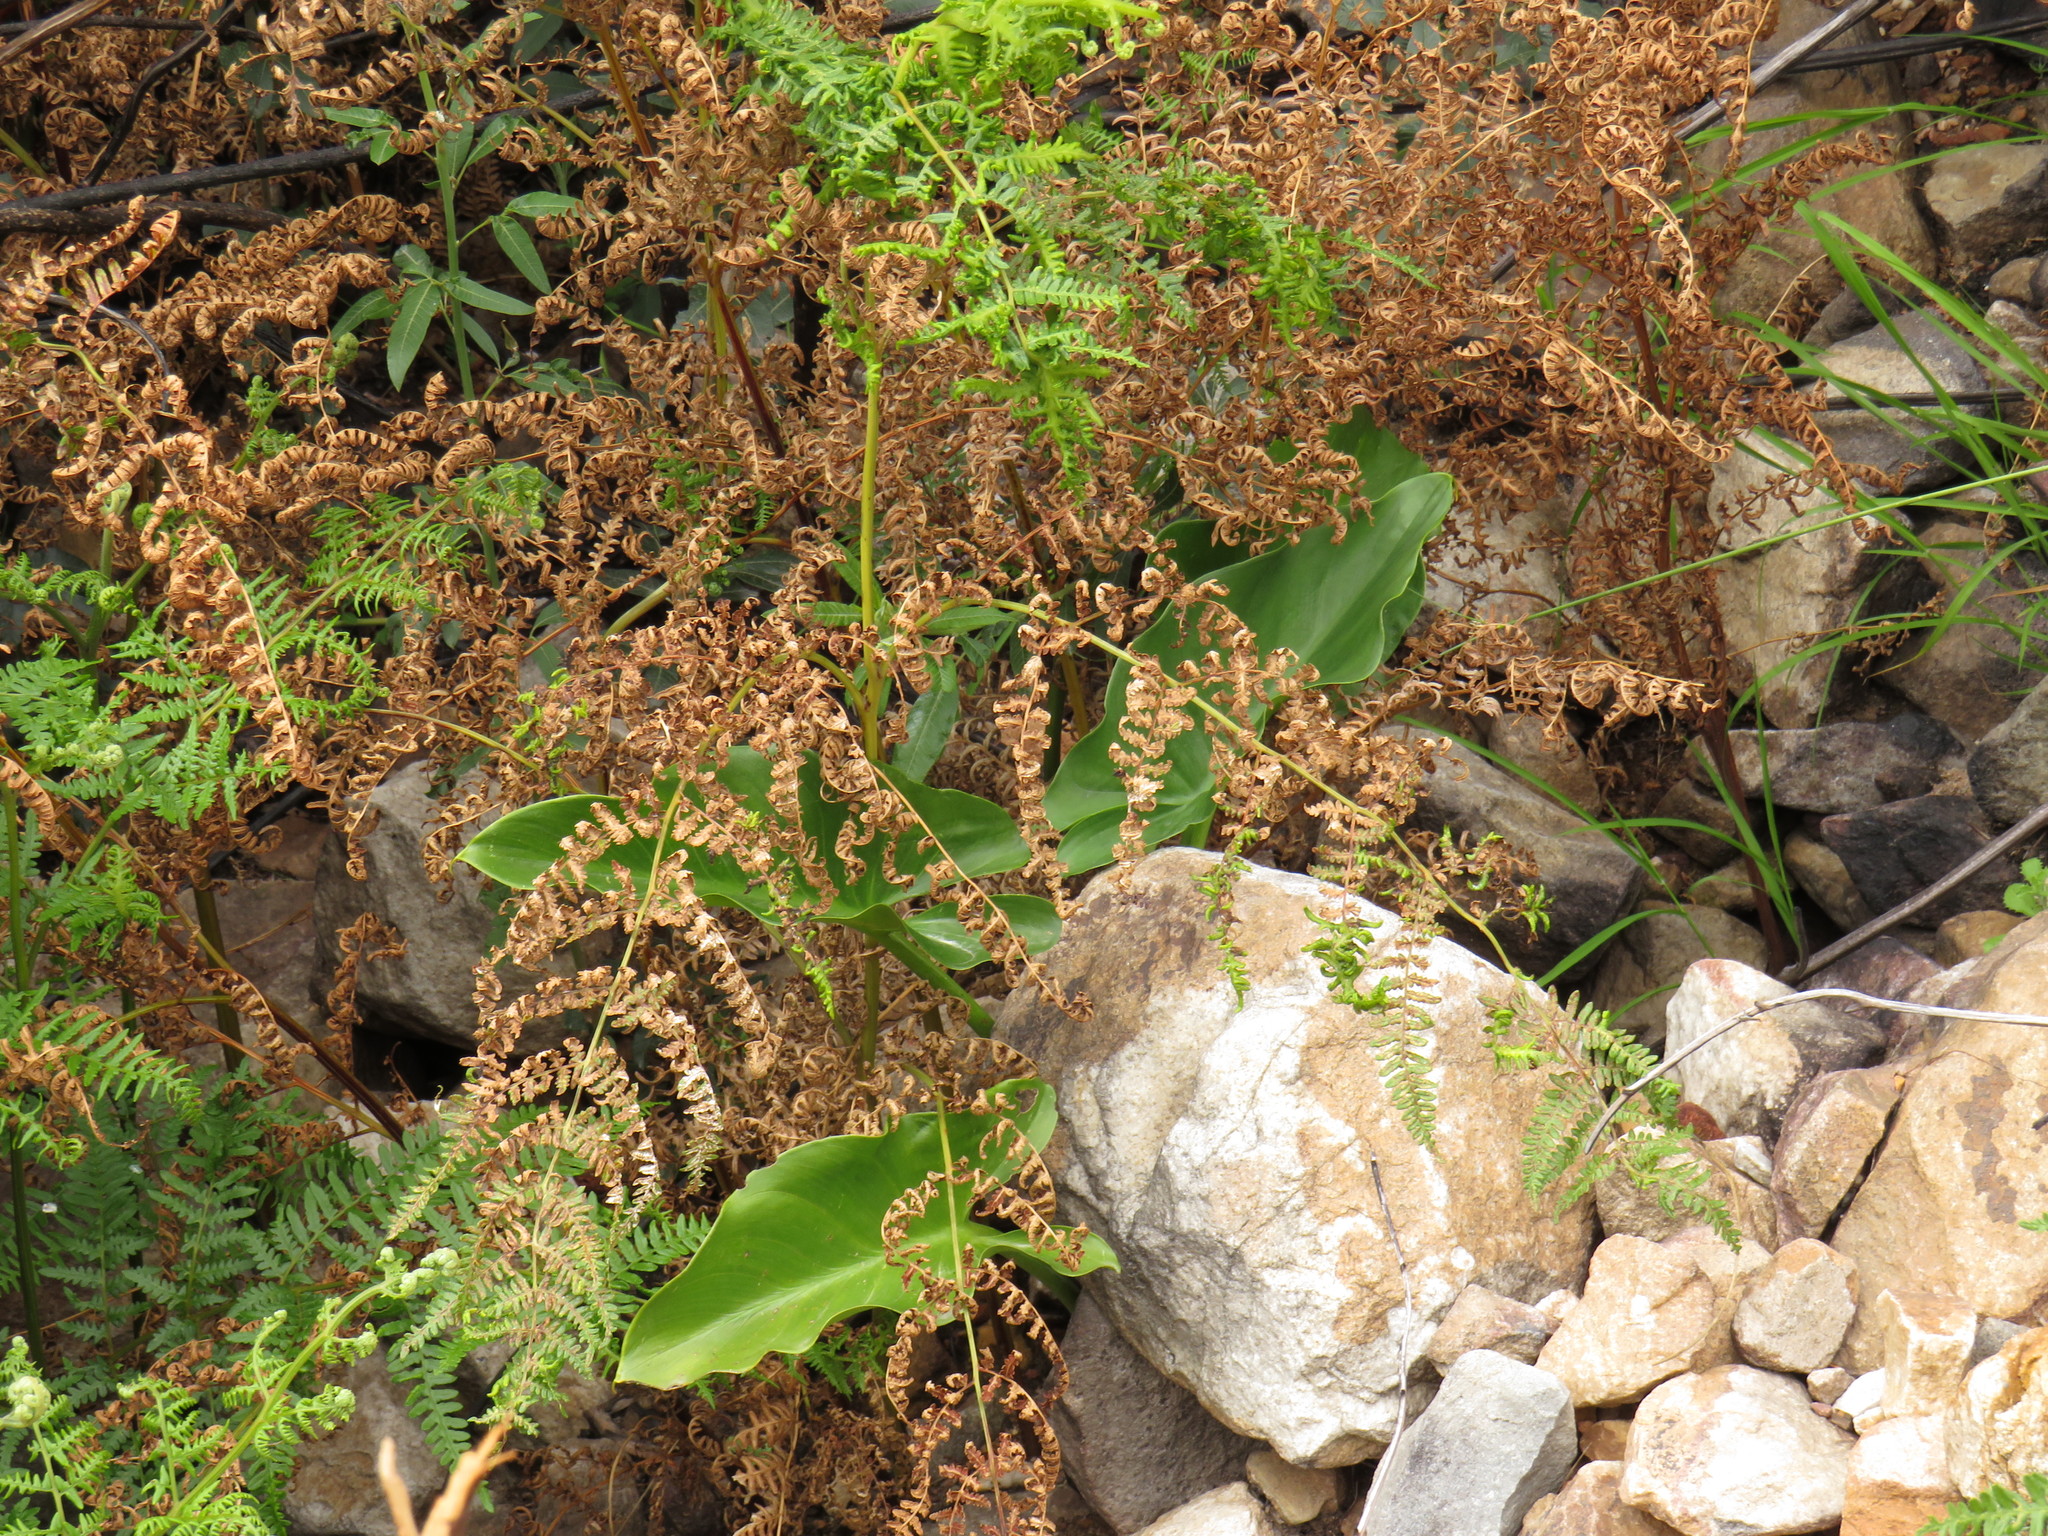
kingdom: Plantae
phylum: Tracheophyta
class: Liliopsida
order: Alismatales
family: Araceae
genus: Zantedeschia
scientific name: Zantedeschia aethiopica
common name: Altar-lily
